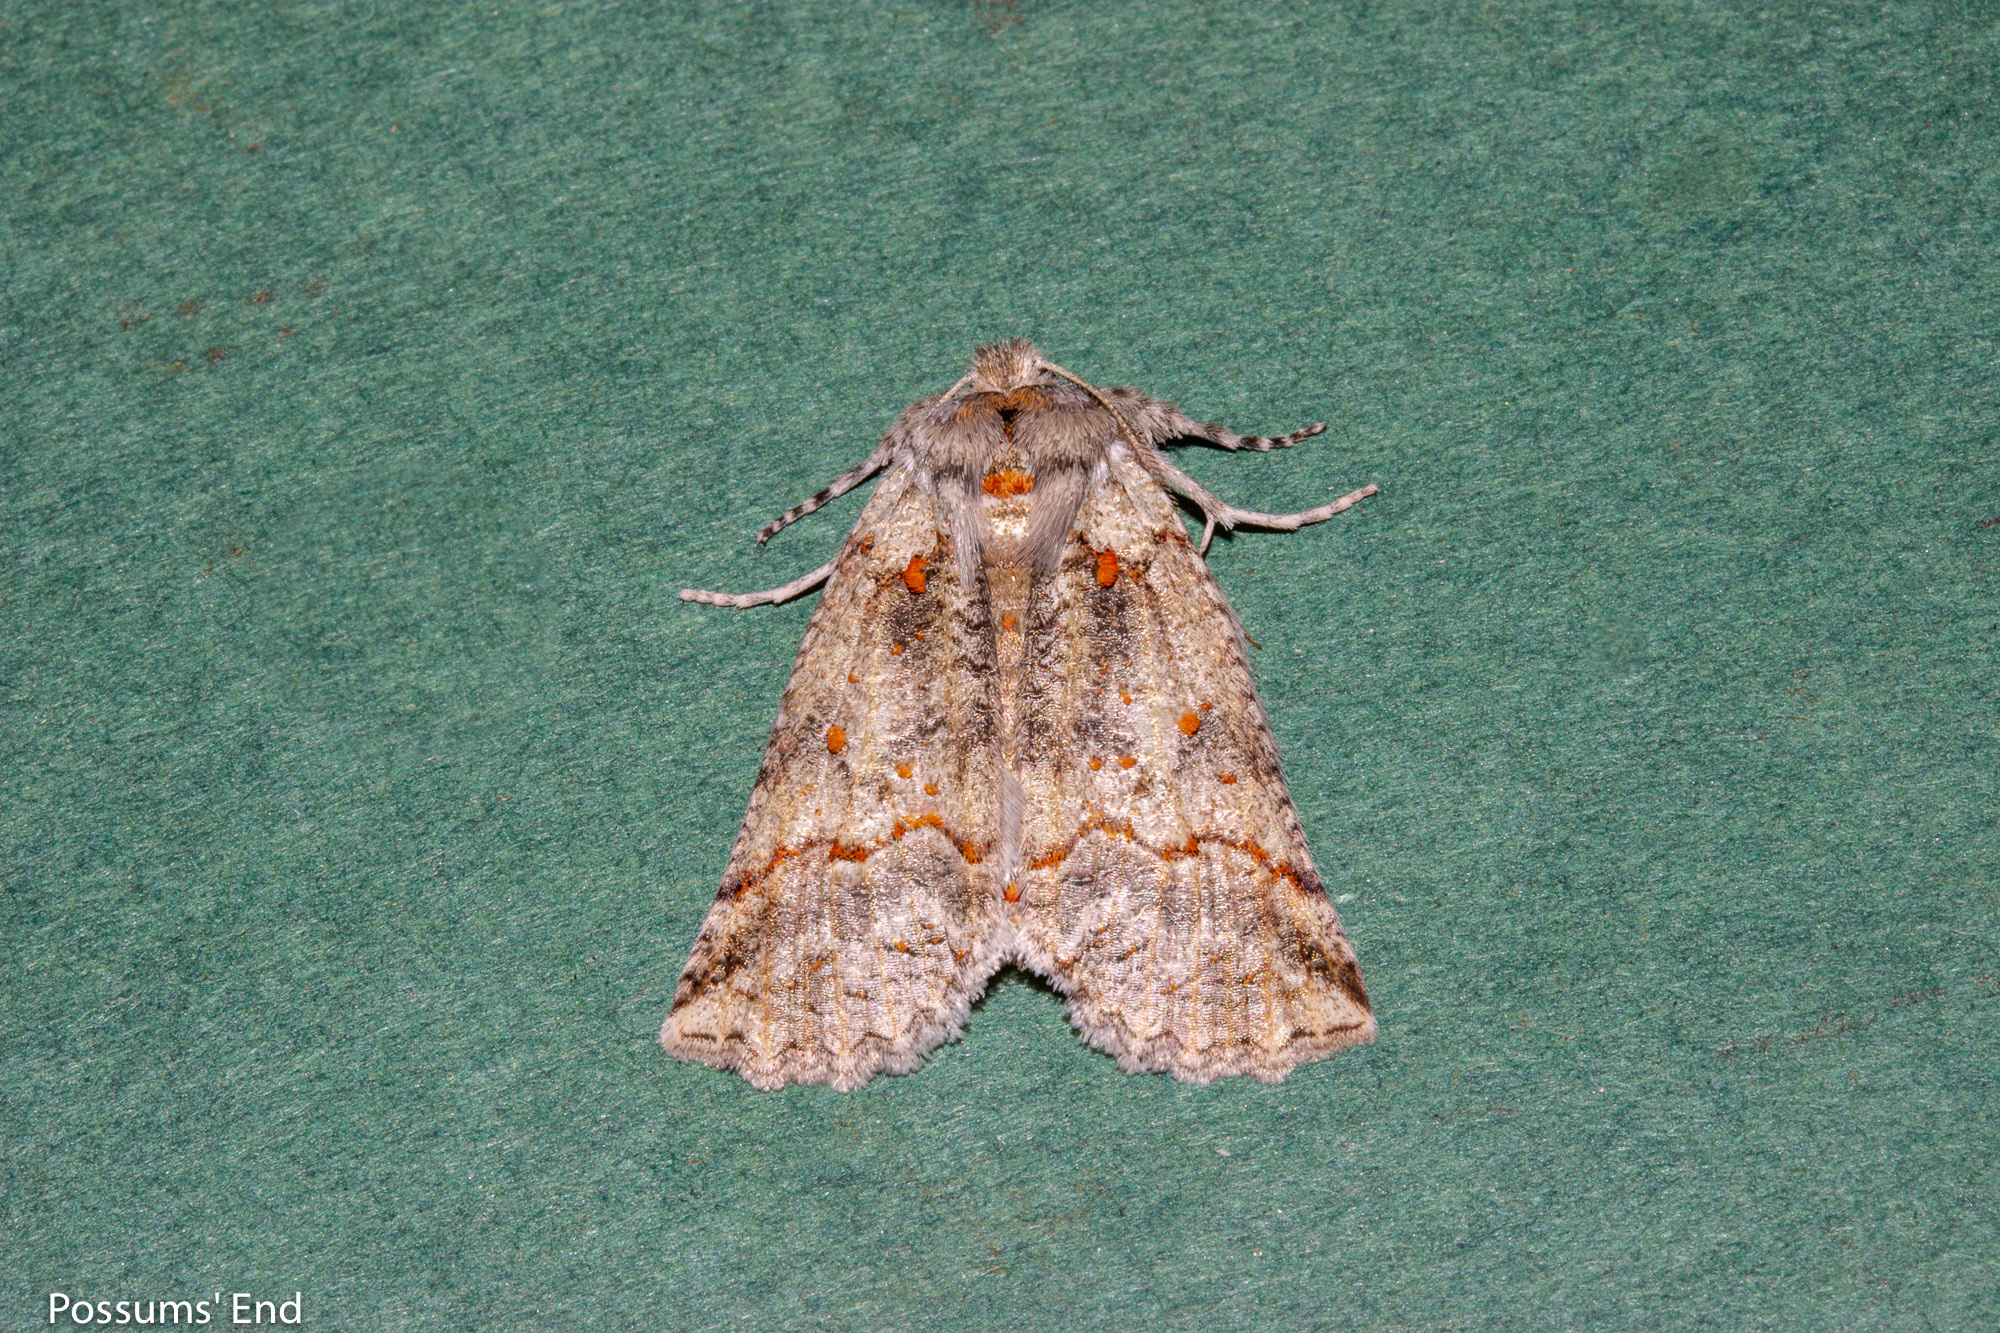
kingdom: Animalia
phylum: Arthropoda
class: Insecta
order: Lepidoptera
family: Geometridae
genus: Declana
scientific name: Declana floccosa
